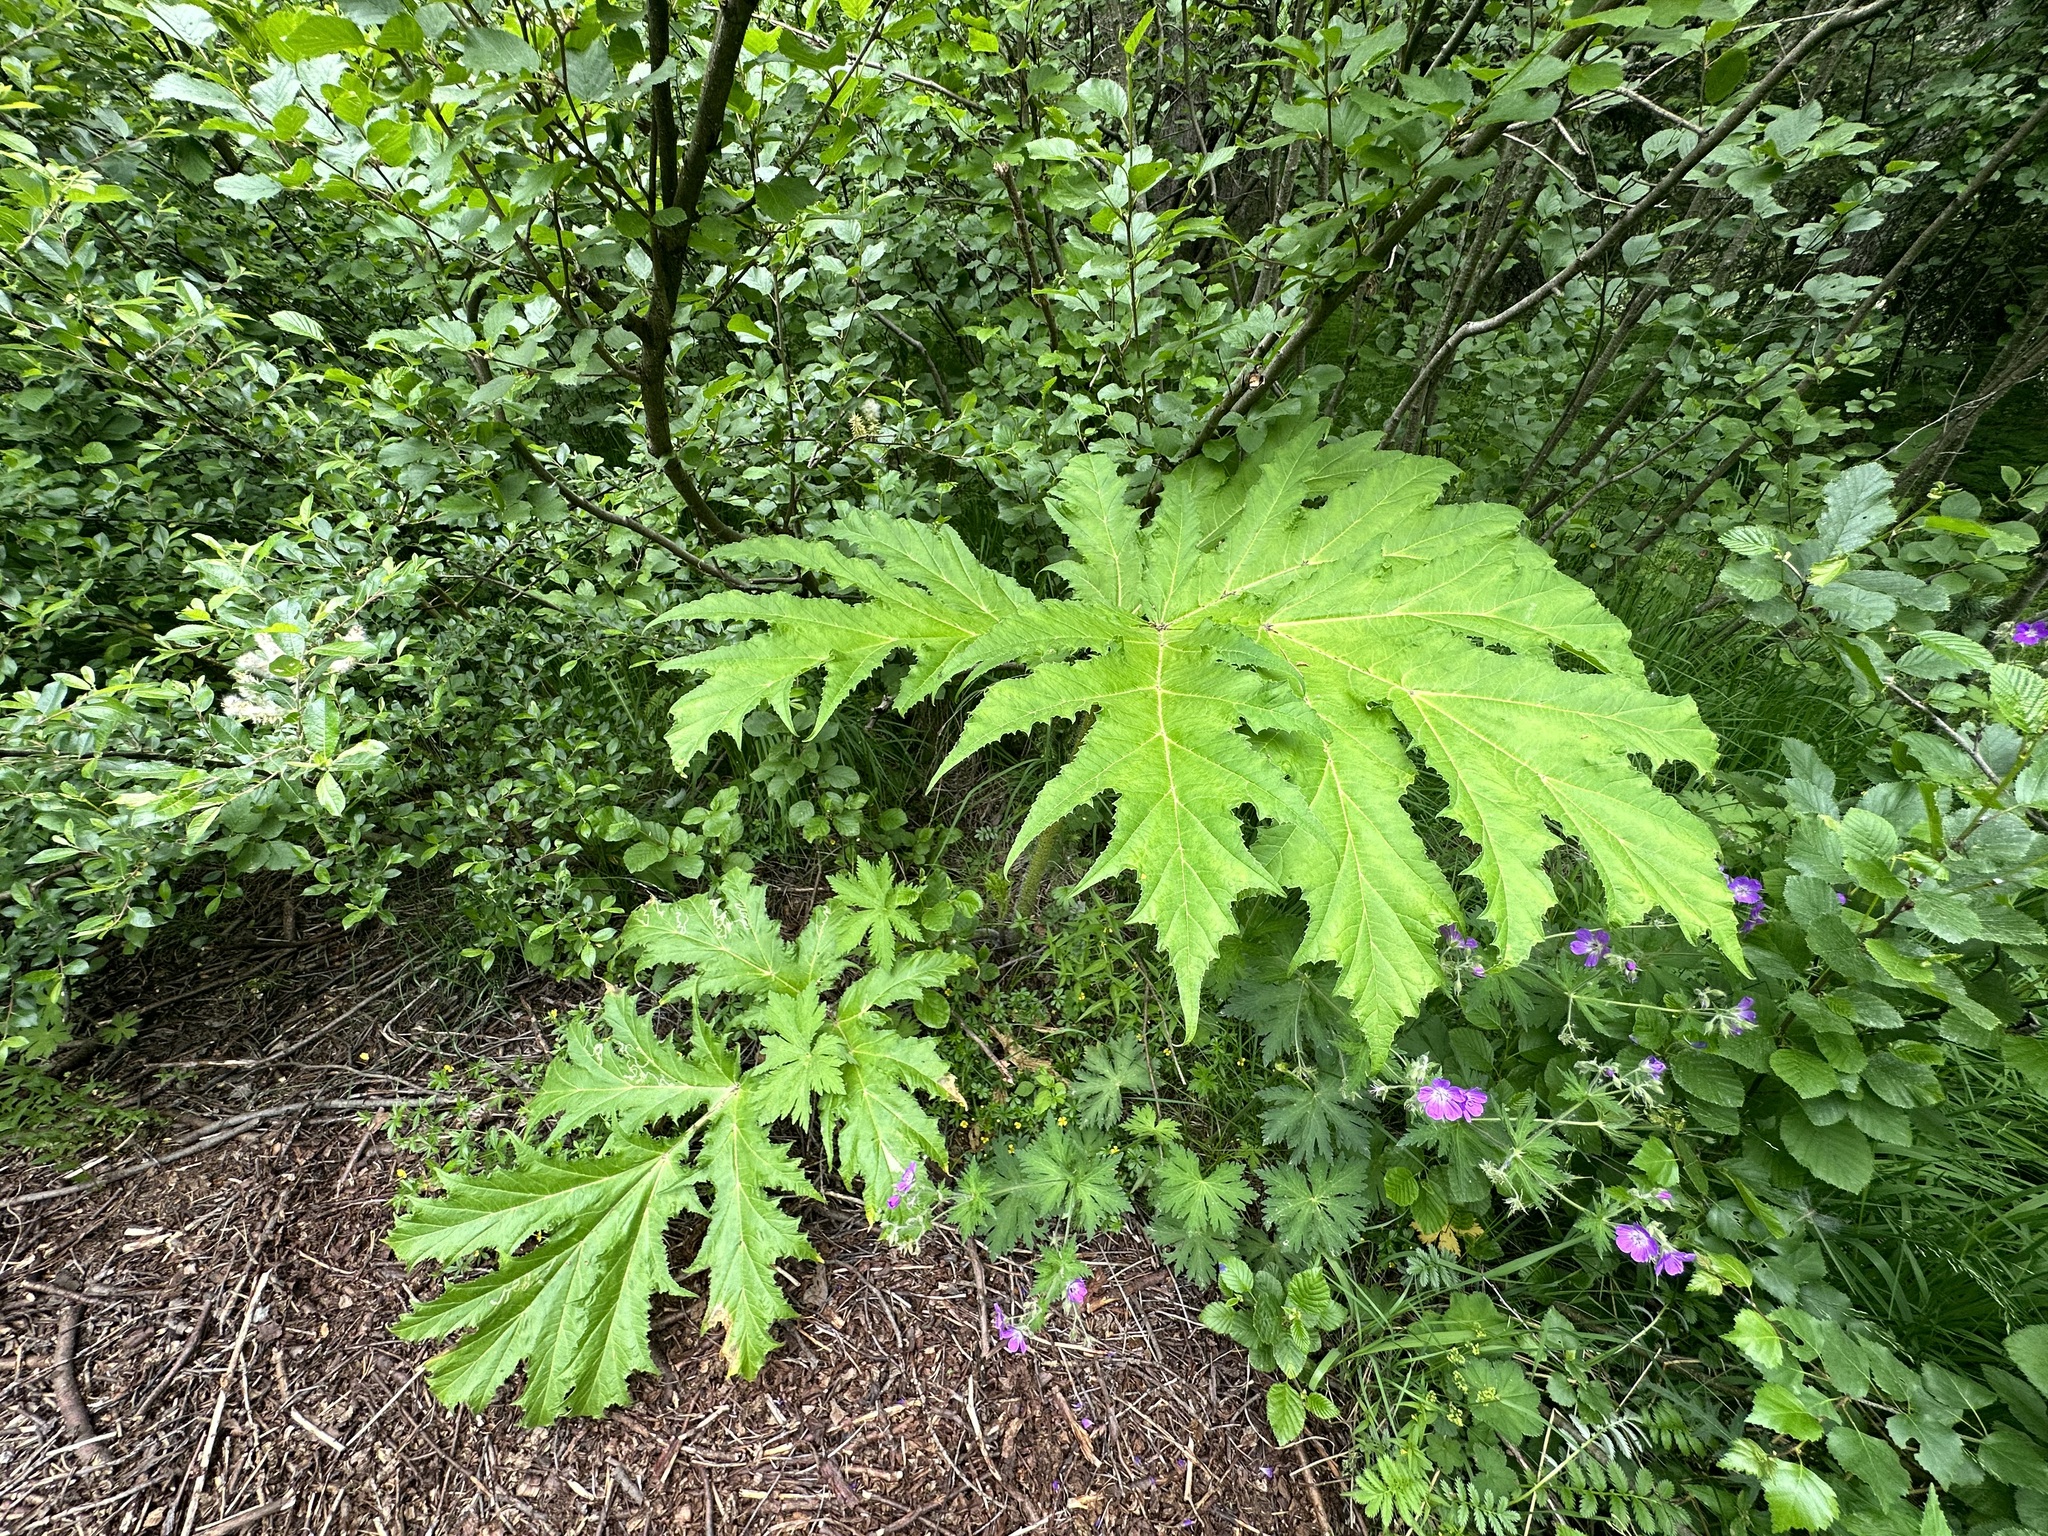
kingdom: Plantae
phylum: Tracheophyta
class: Magnoliopsida
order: Apiales
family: Apiaceae
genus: Heracleum
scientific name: Heracleum mantegazzianum
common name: Giant hogweed
